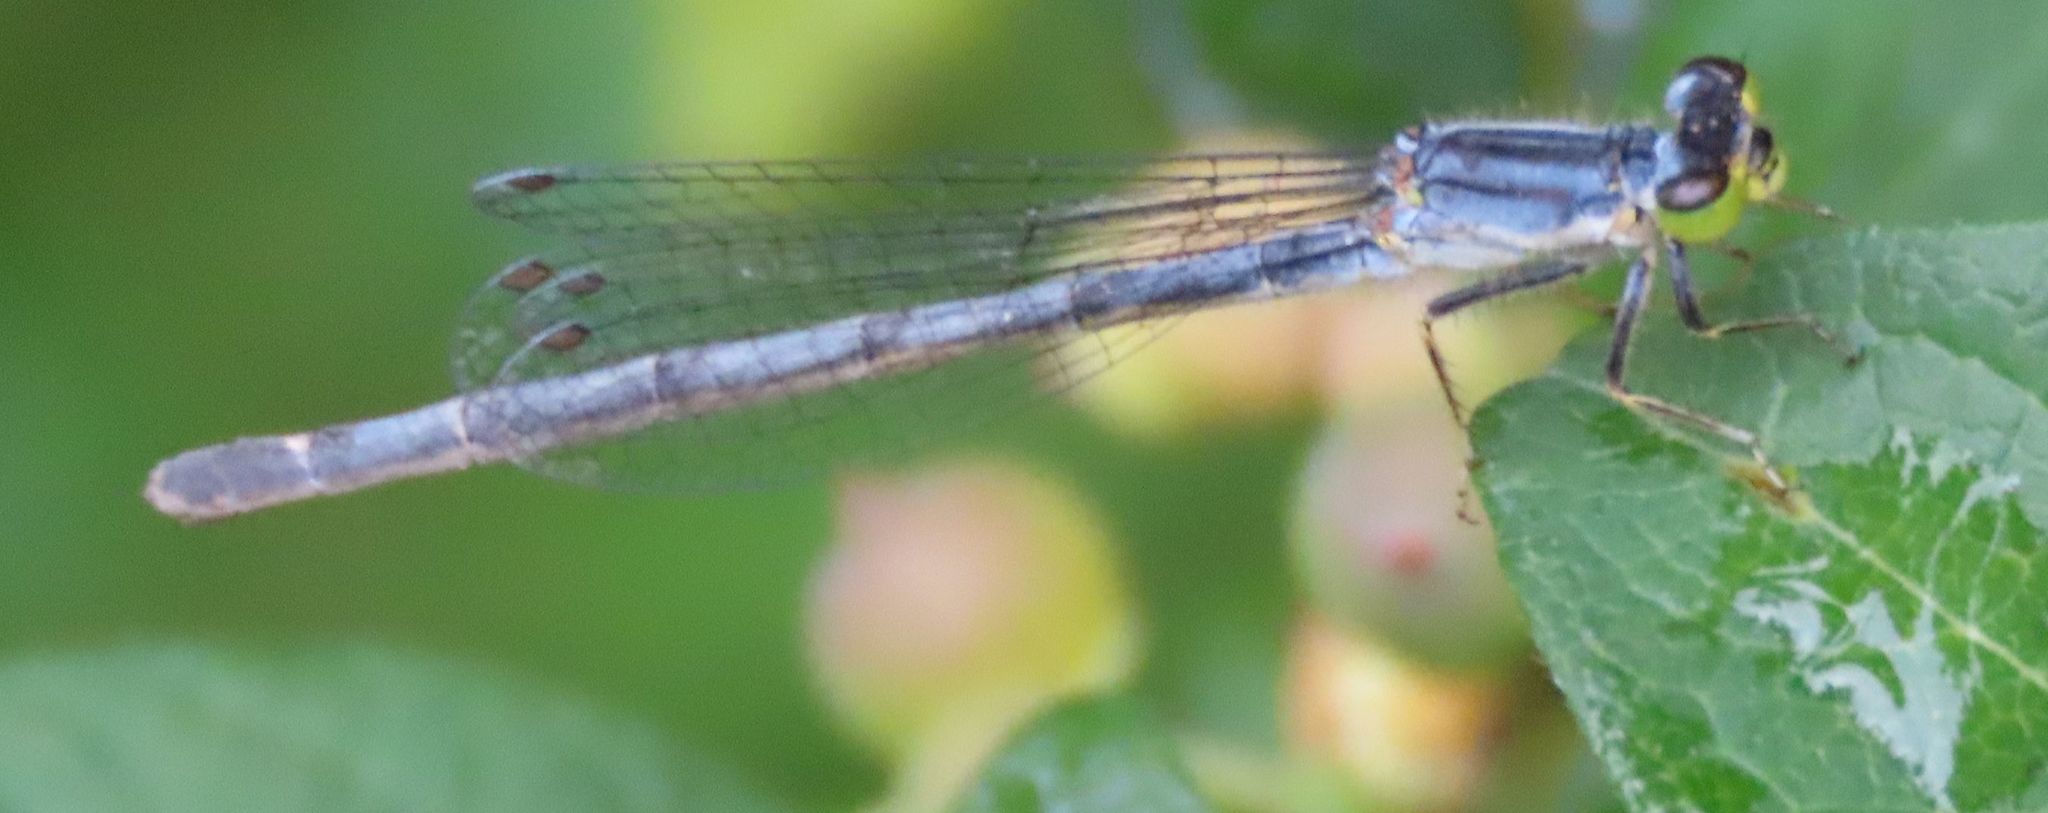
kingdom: Animalia
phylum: Arthropoda
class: Insecta
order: Odonata
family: Coenagrionidae
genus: Ischnura
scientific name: Ischnura verticalis
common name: Eastern forktail
